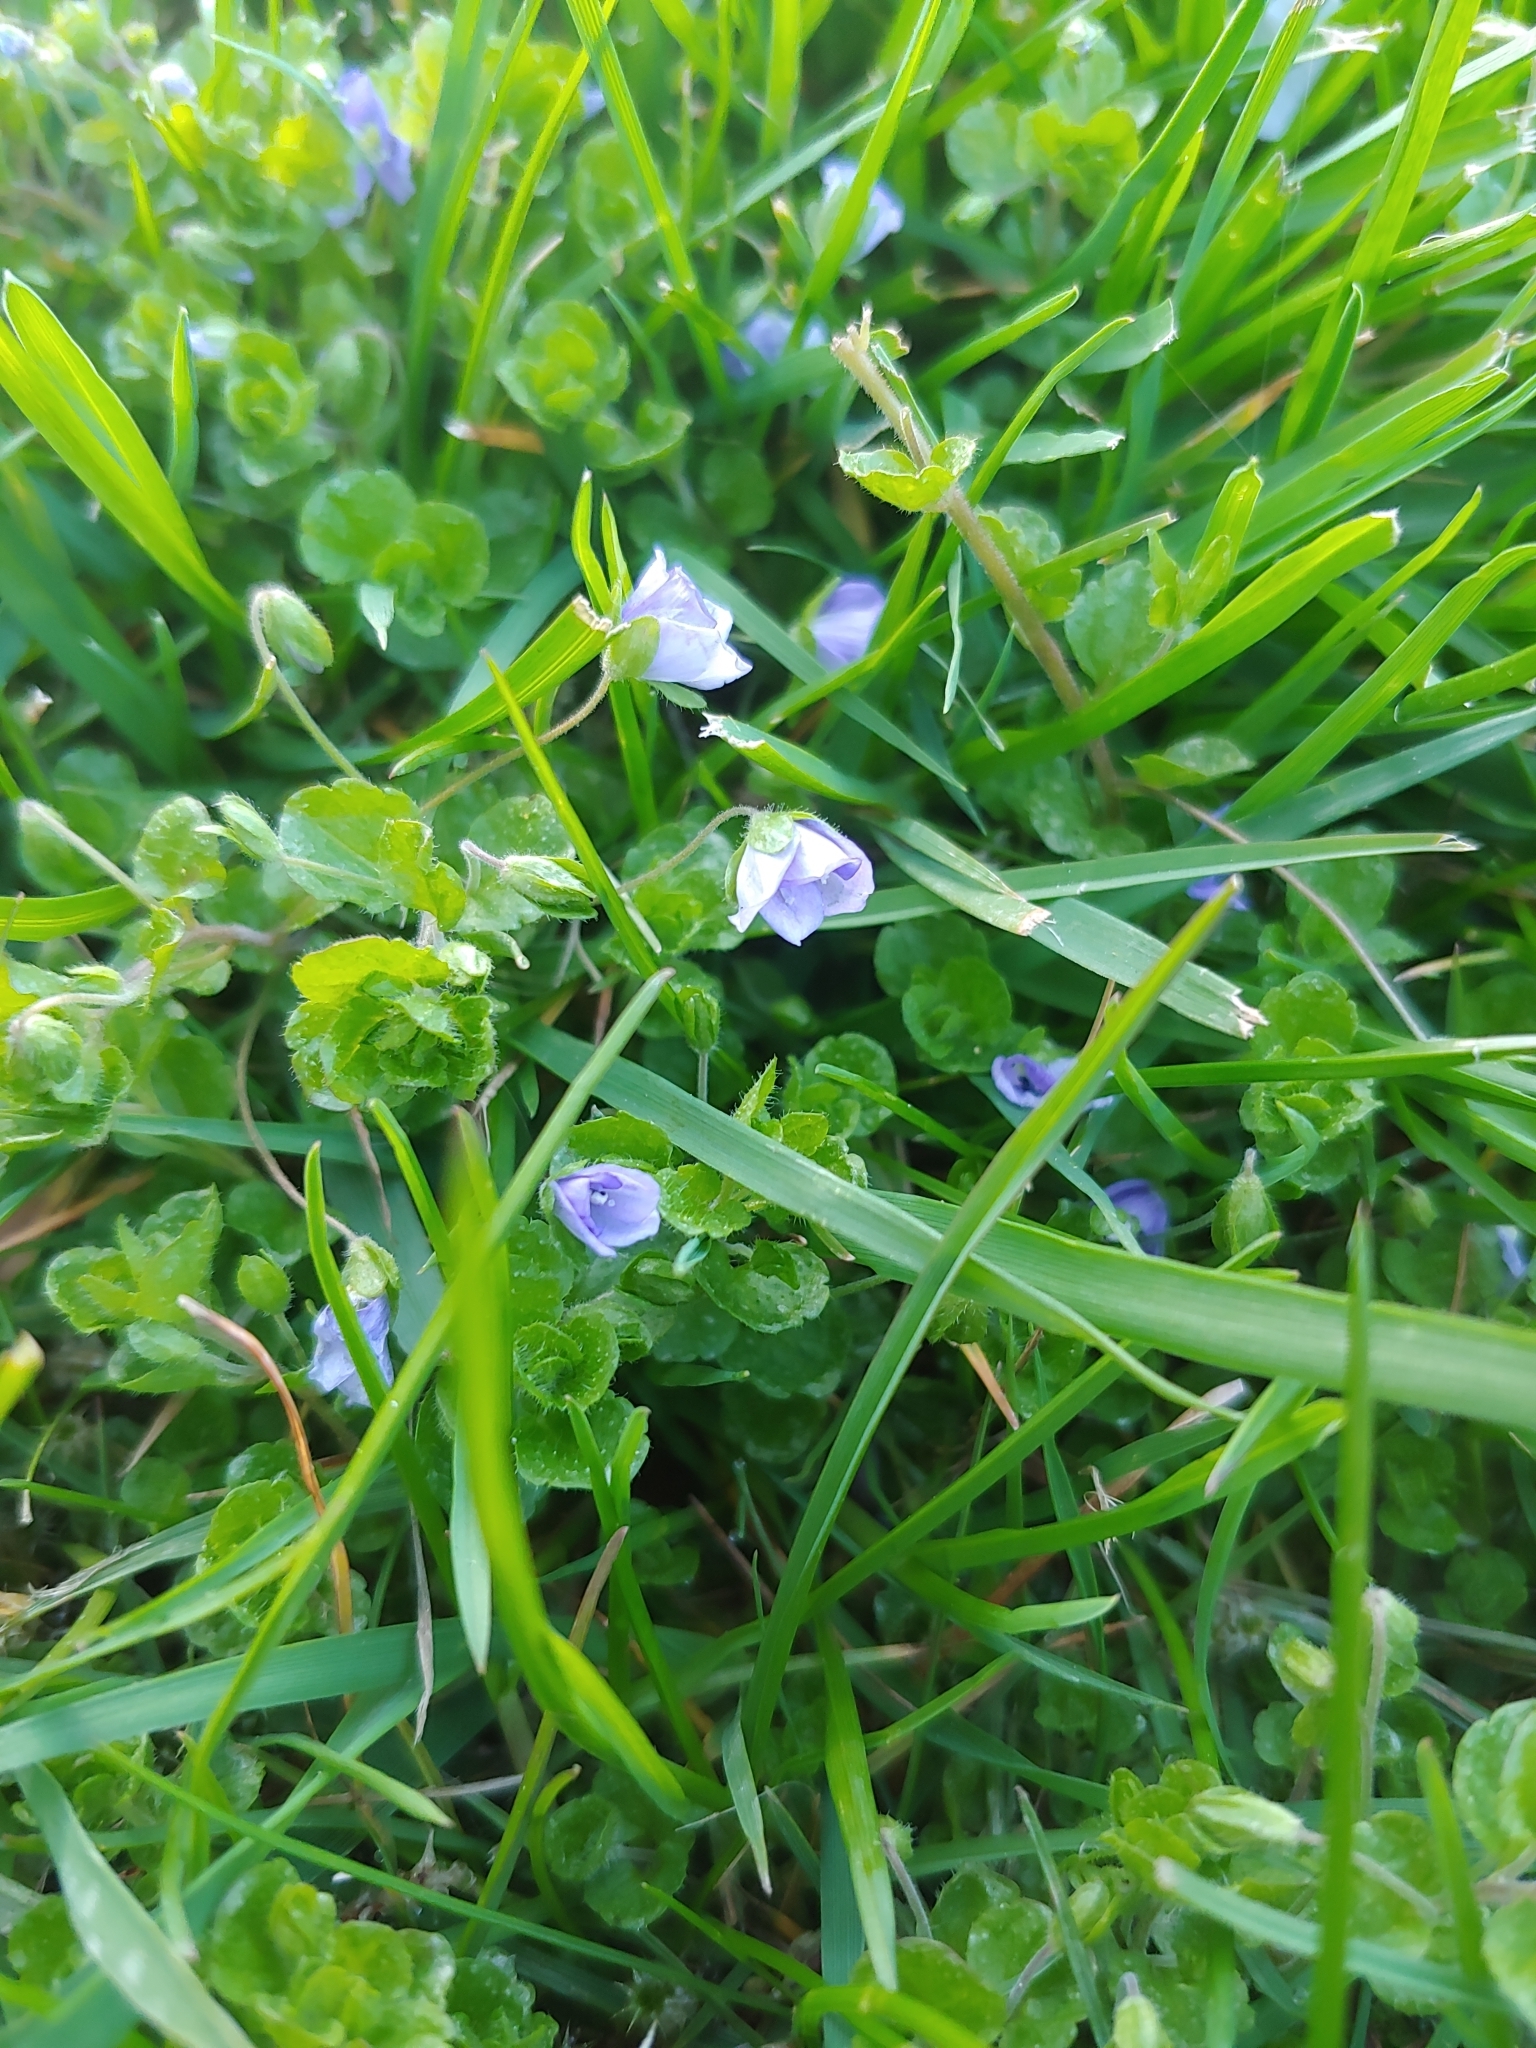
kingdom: Plantae
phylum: Tracheophyta
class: Magnoliopsida
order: Lamiales
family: Plantaginaceae
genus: Veronica
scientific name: Veronica filiformis
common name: Slender speedwell
